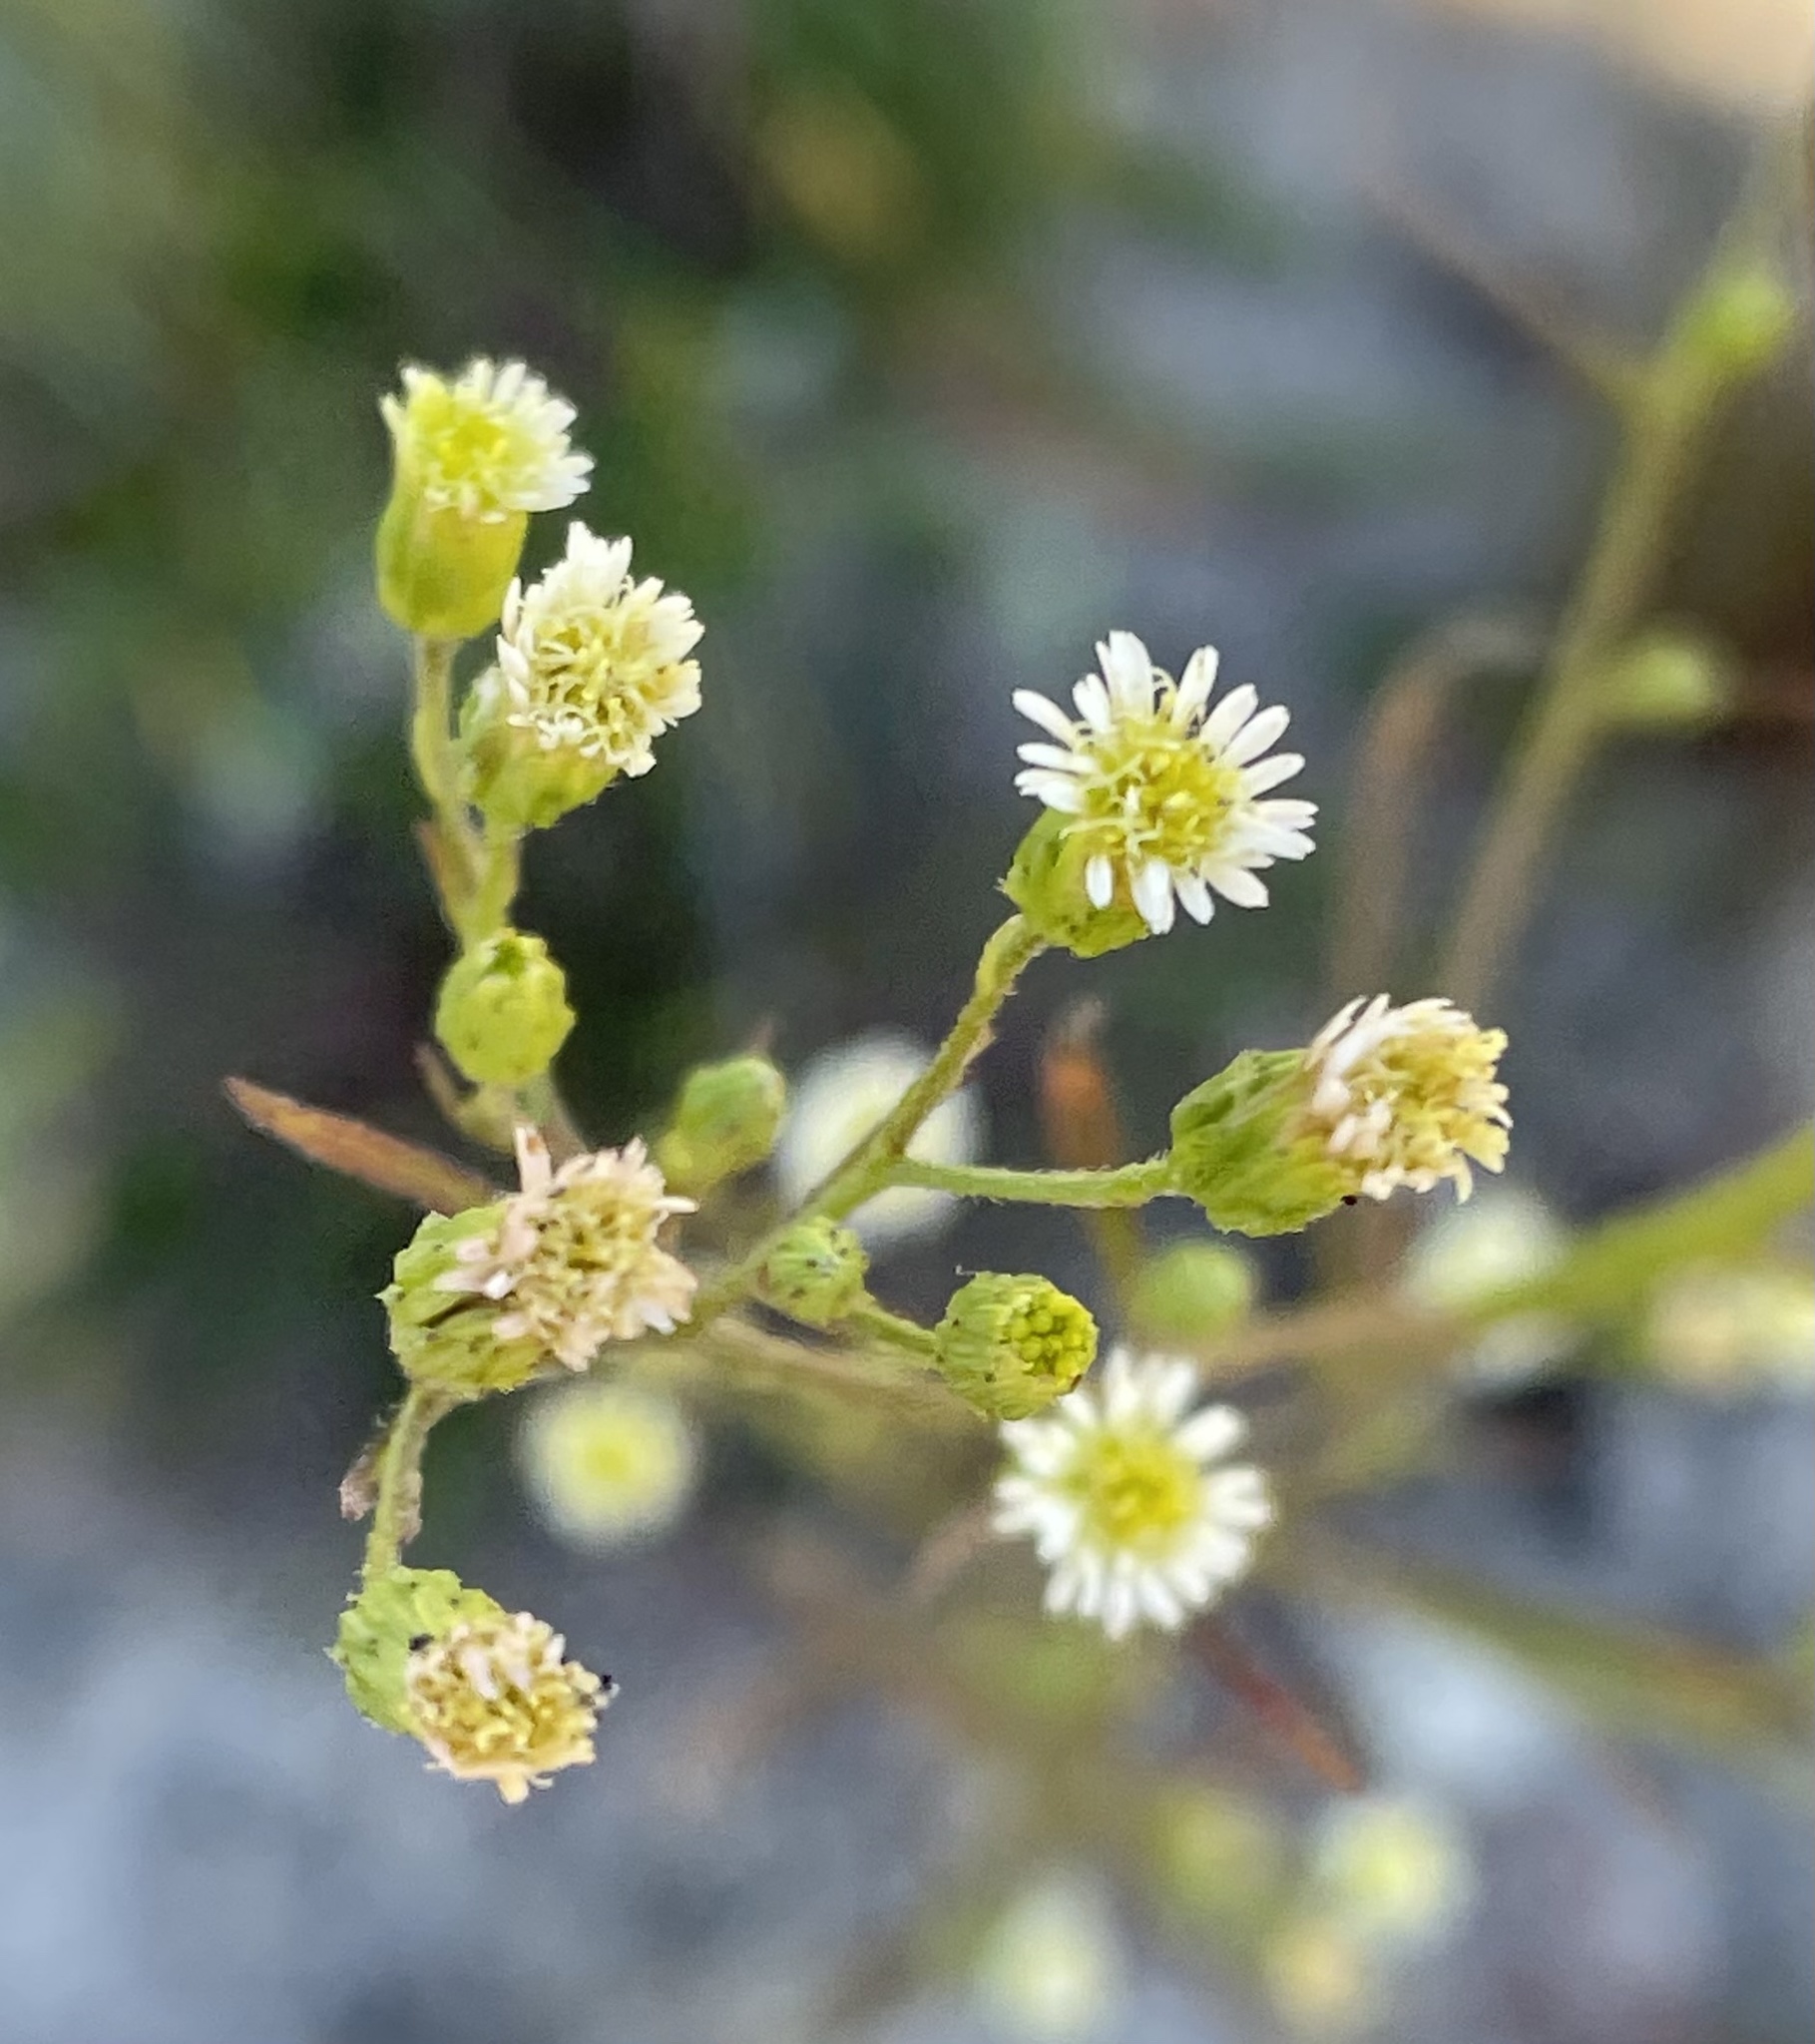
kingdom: Plantae
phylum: Tracheophyta
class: Magnoliopsida
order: Asterales
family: Asteraceae
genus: Erigeron
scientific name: Erigeron canadensis
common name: Canadian fleabane
